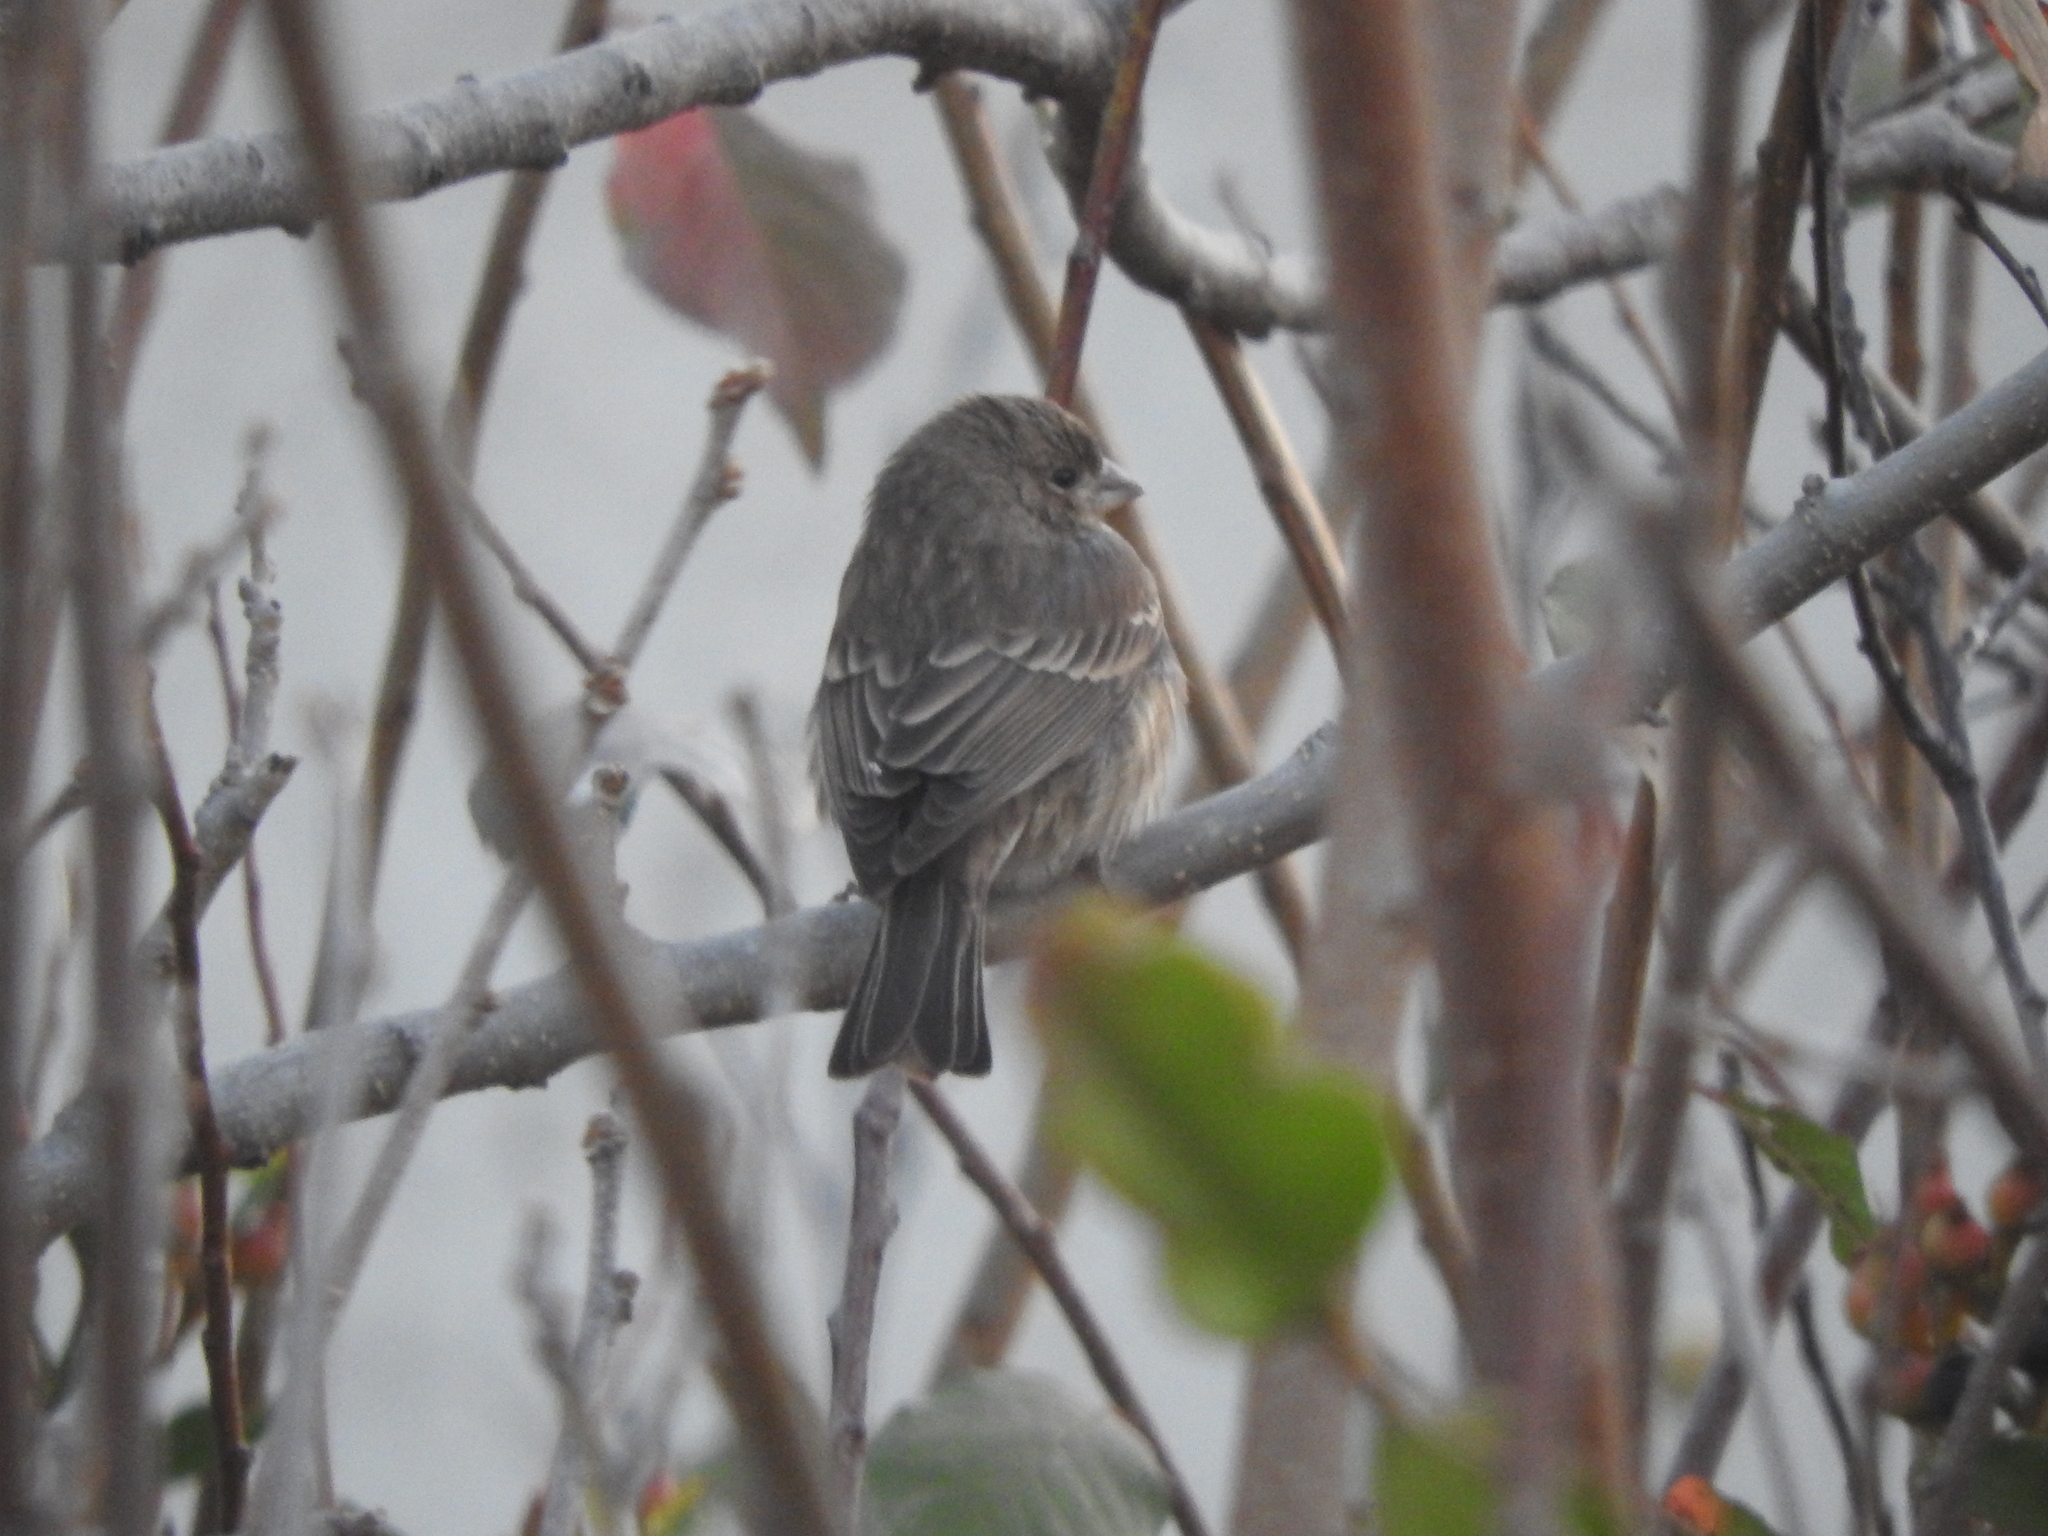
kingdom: Animalia
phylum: Chordata
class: Aves
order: Passeriformes
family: Fringillidae
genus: Haemorhous
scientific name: Haemorhous mexicanus
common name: House finch
